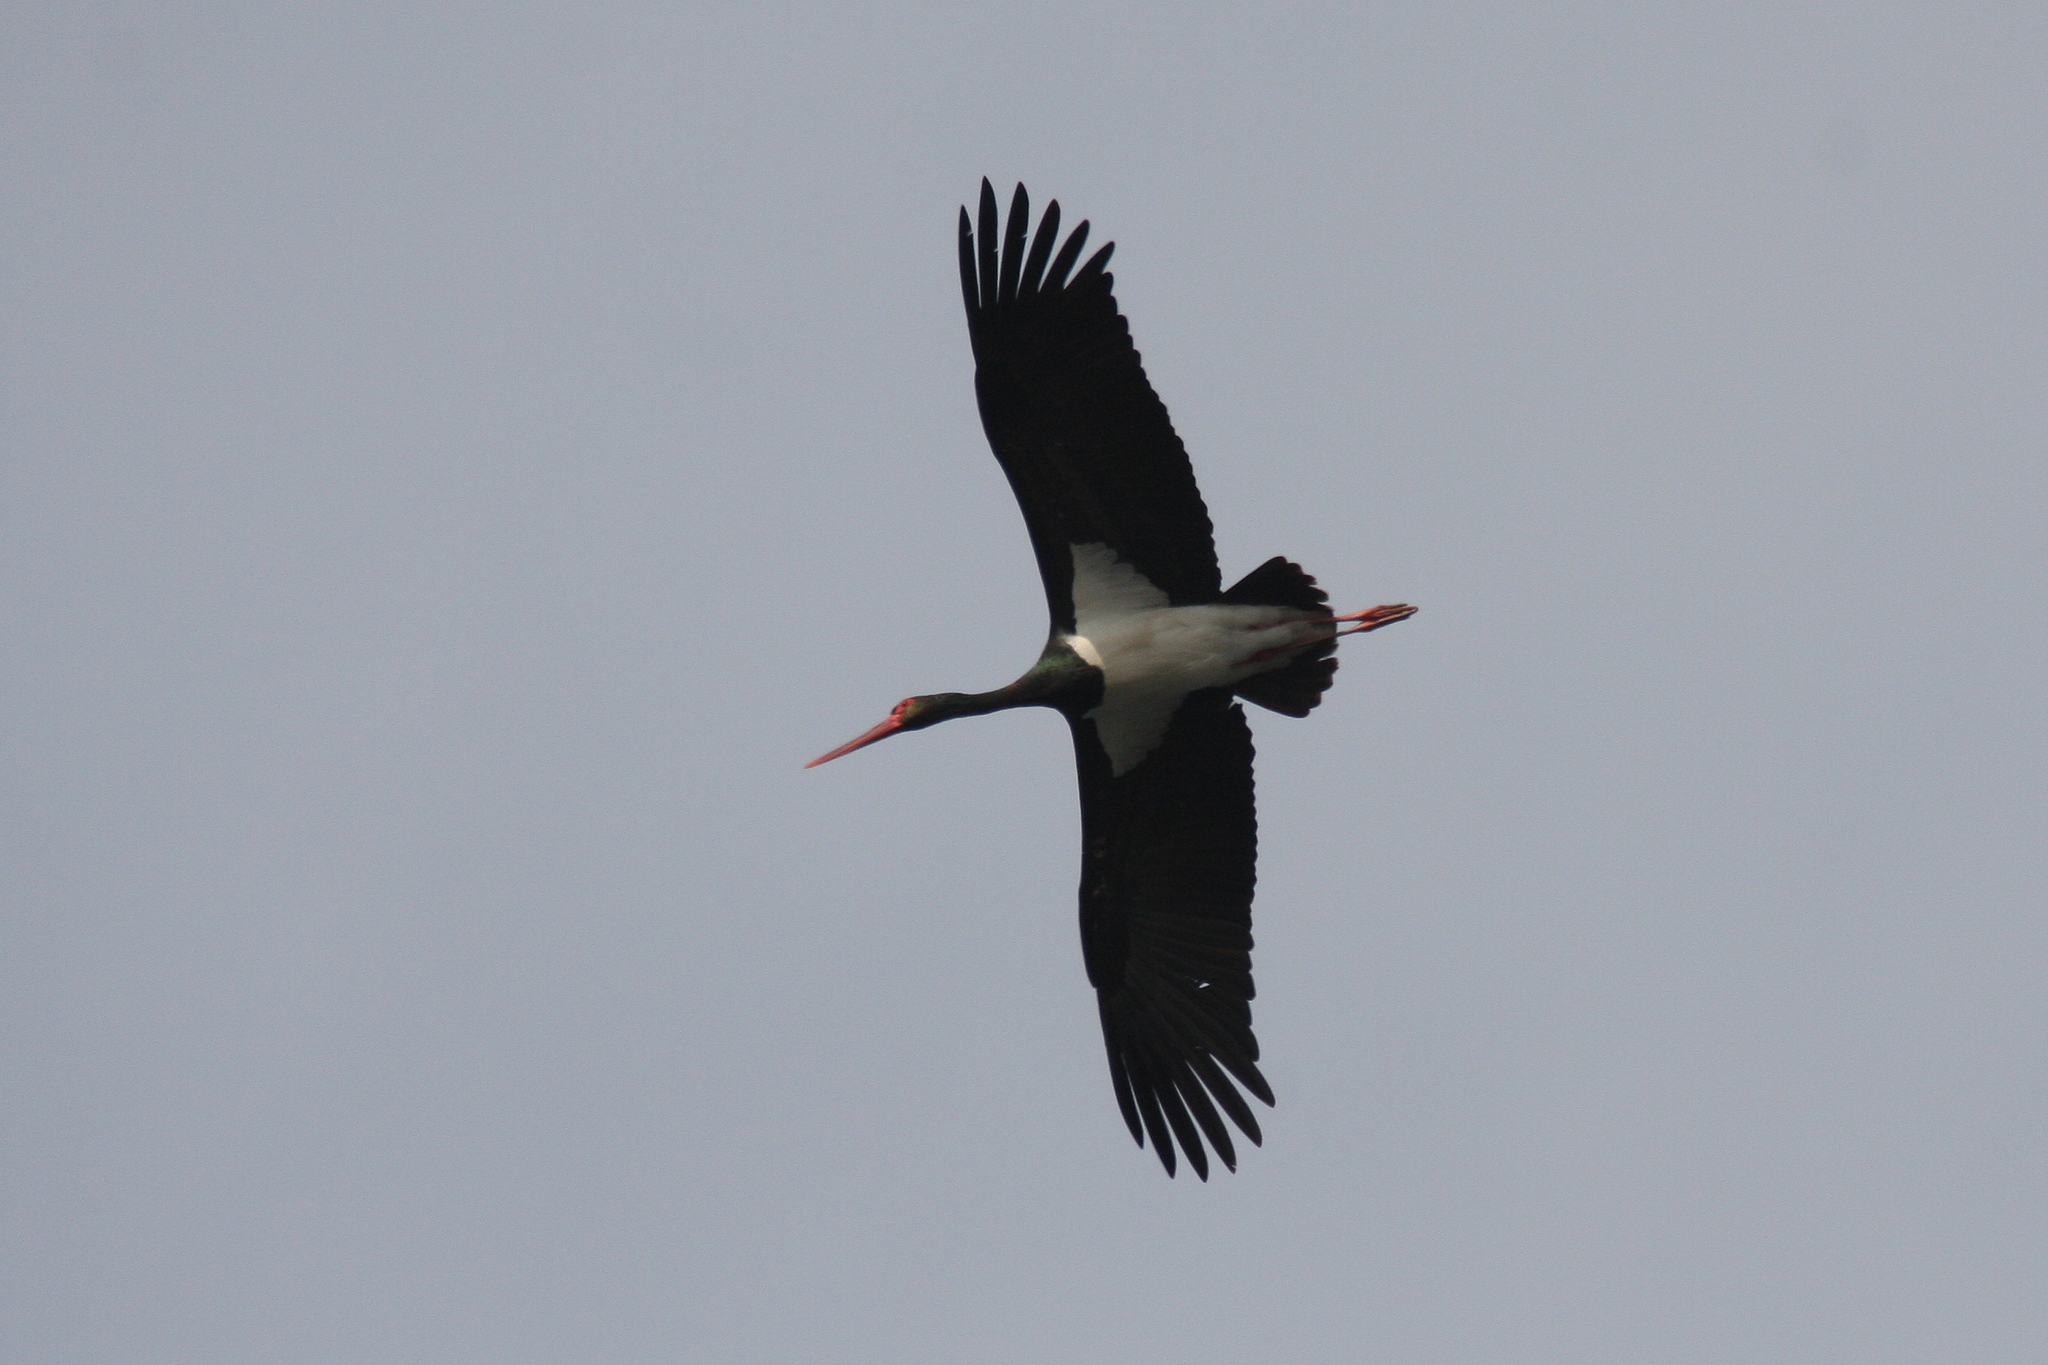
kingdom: Animalia
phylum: Chordata
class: Aves
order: Ciconiiformes
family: Ciconiidae
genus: Ciconia
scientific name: Ciconia nigra
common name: Black stork
